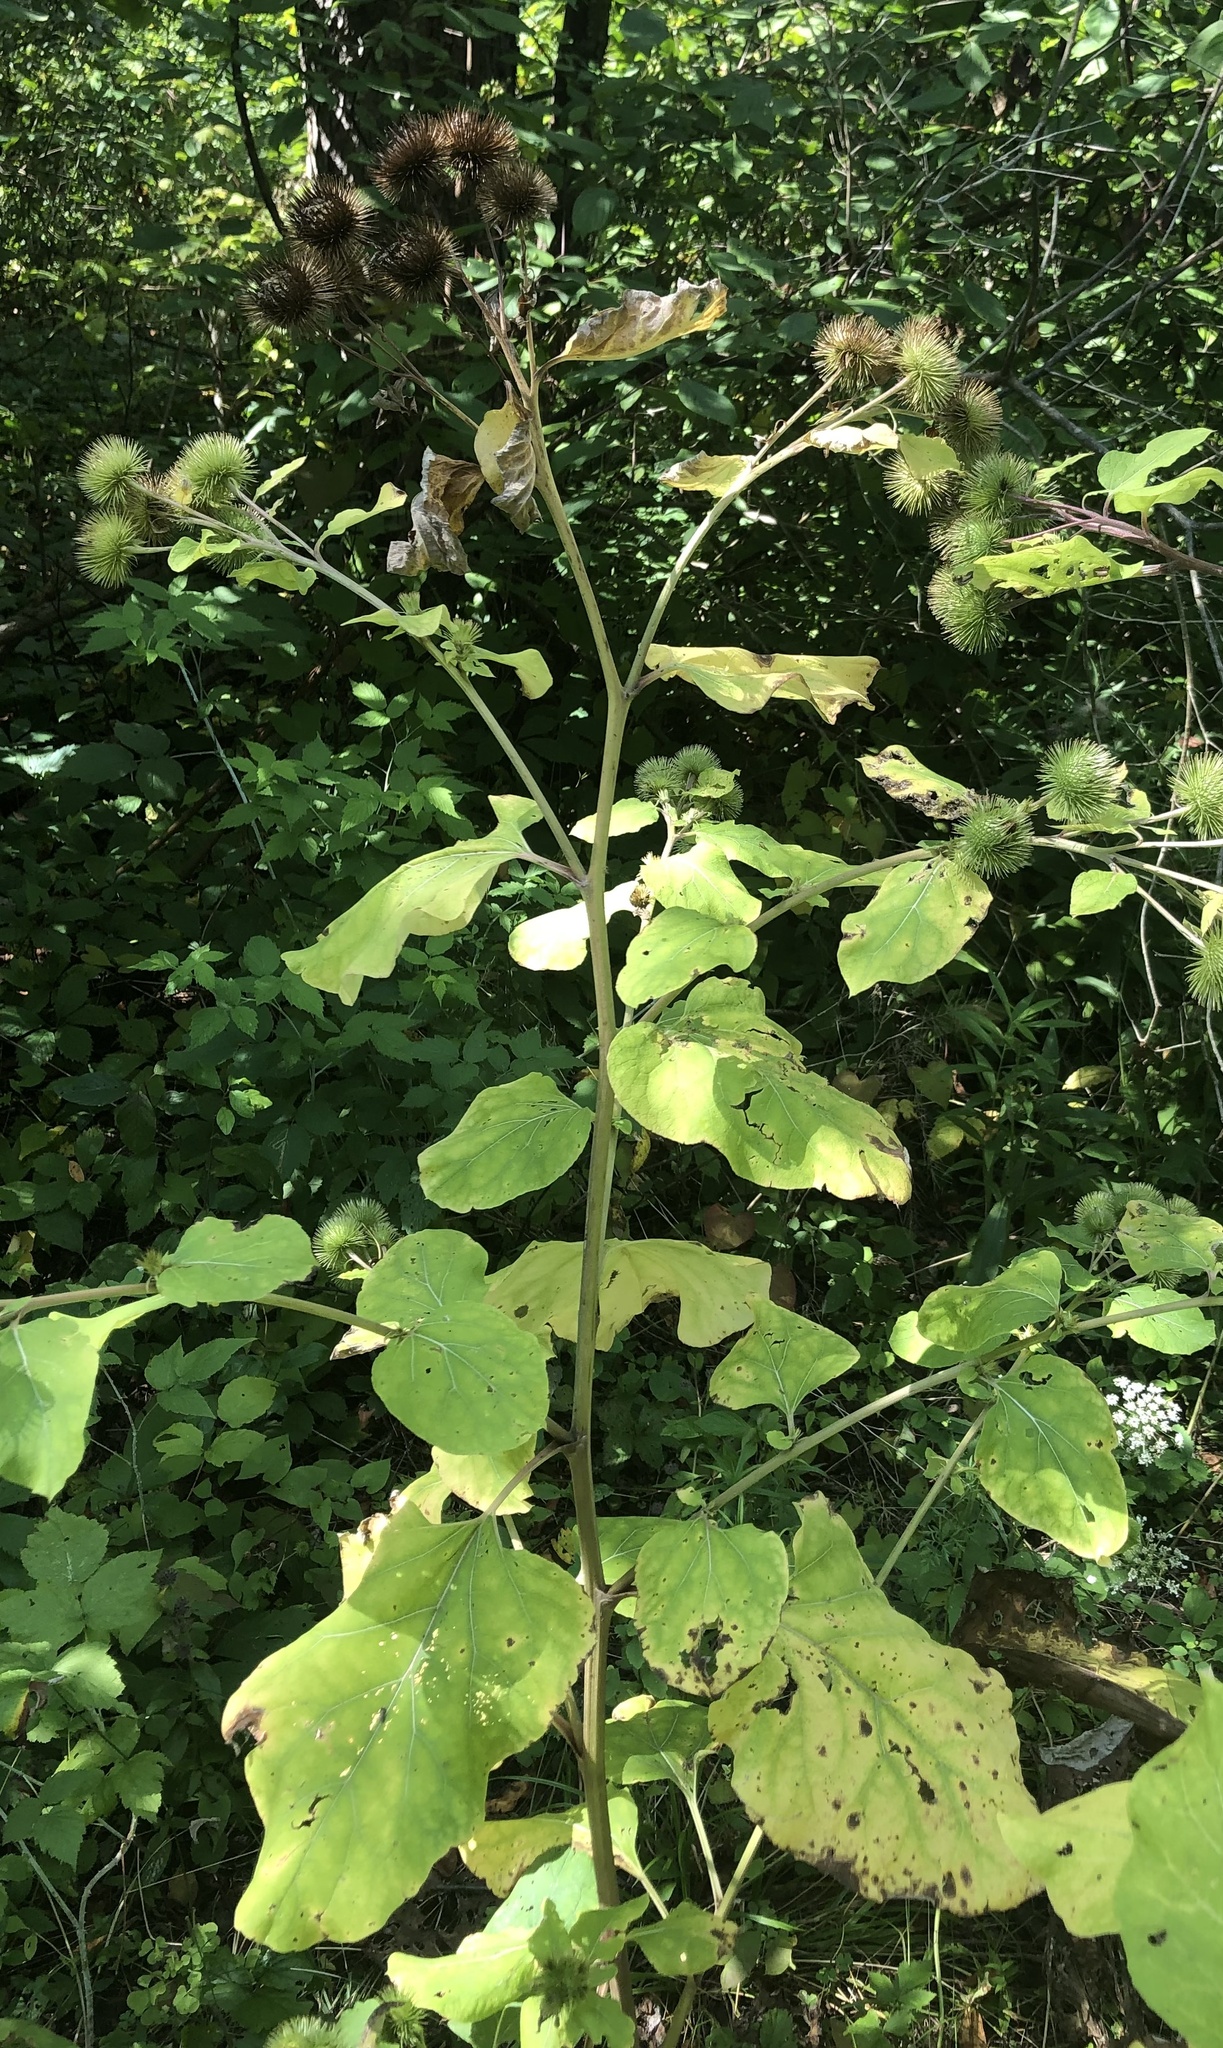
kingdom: Plantae
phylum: Tracheophyta
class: Magnoliopsida
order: Asterales
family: Asteraceae
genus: Arctium
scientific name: Arctium lappa
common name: Greater burdock
